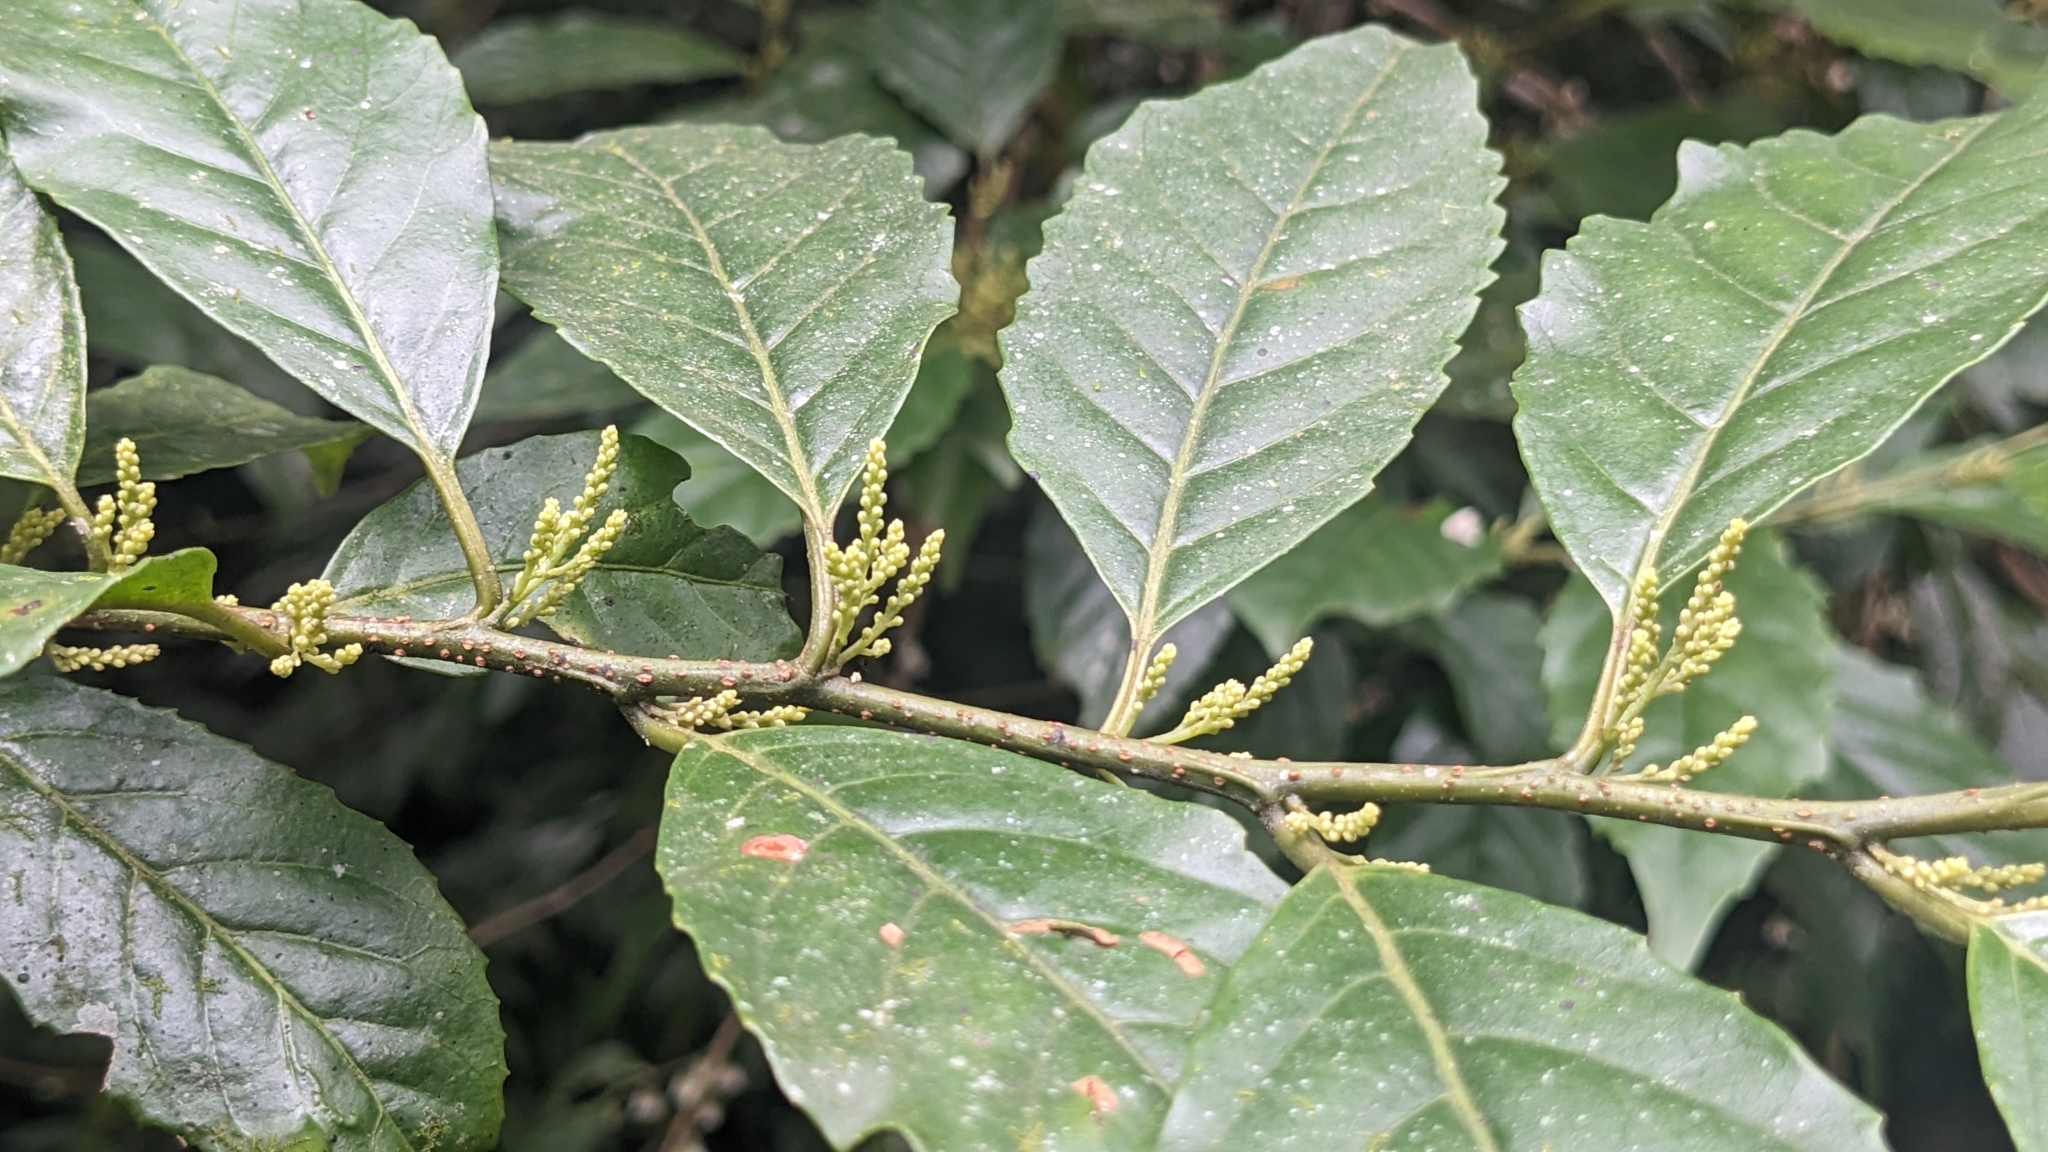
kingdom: Plantae
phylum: Tracheophyta
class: Magnoliopsida
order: Ericales
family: Primulaceae
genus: Maesa
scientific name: Maesa japonica
